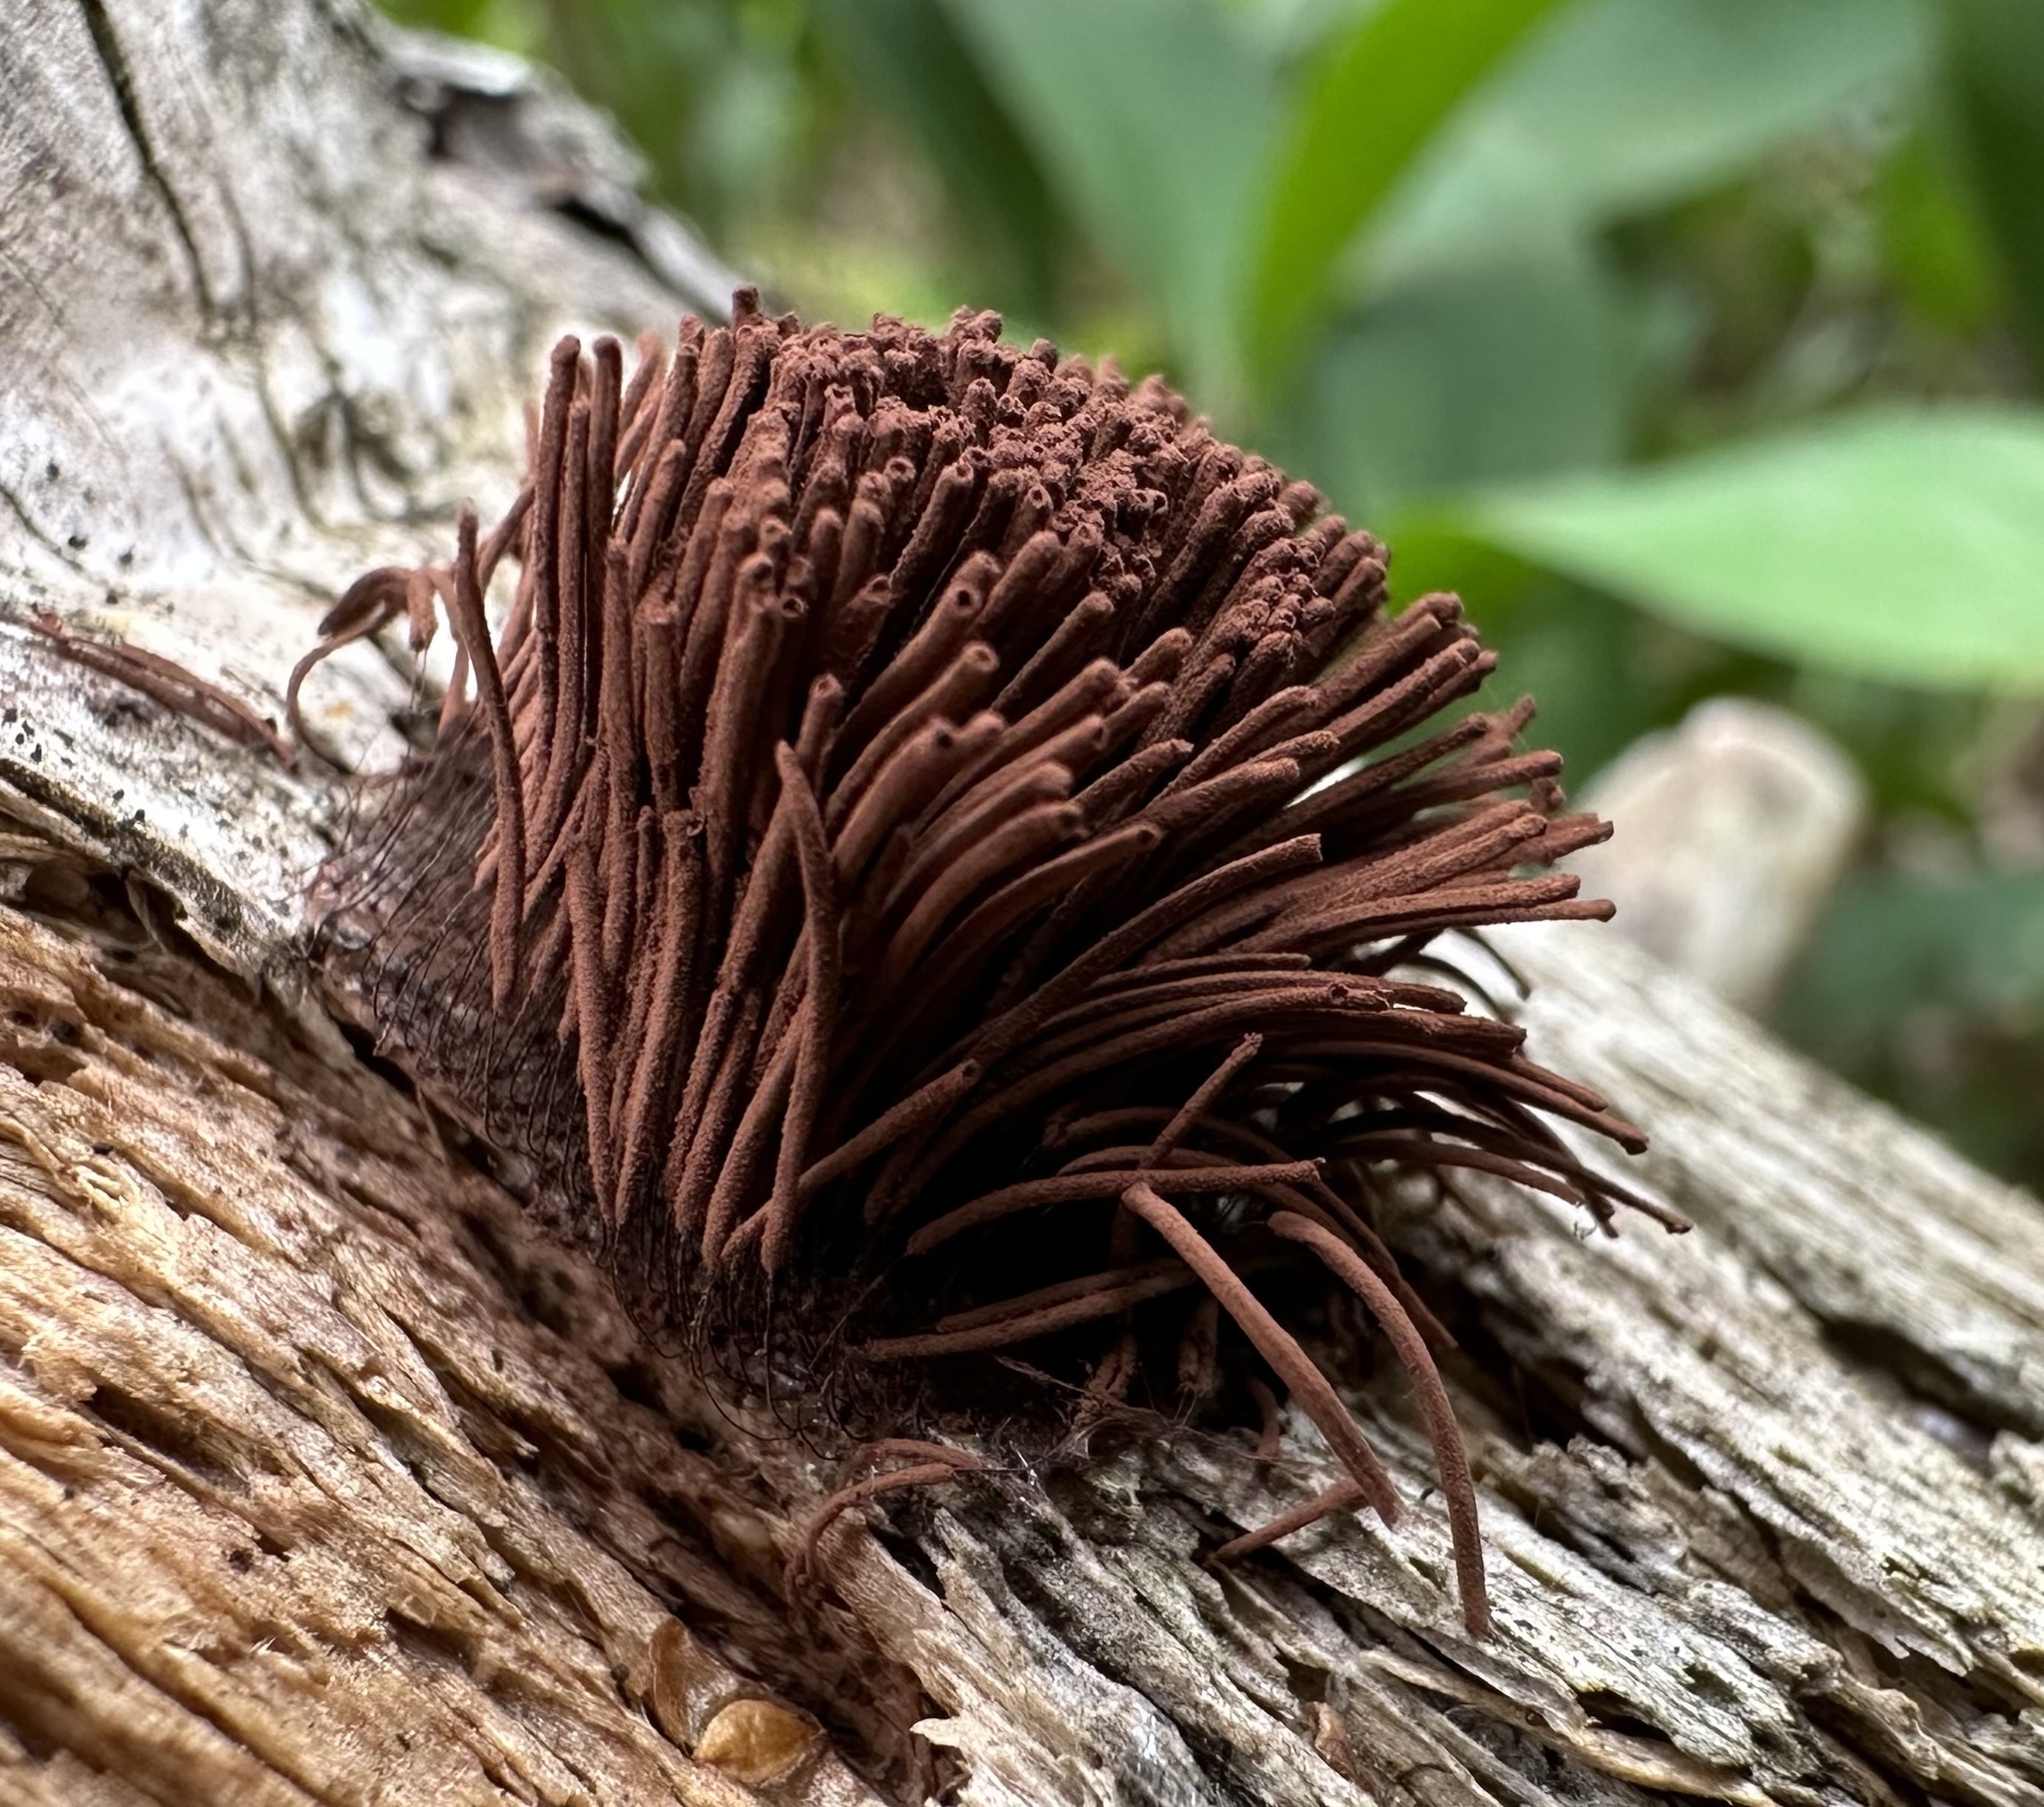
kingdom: Protozoa
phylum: Mycetozoa
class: Myxomycetes
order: Stemonitidales
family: Stemonitidaceae
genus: Stemonitis
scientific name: Stemonitis axifera
